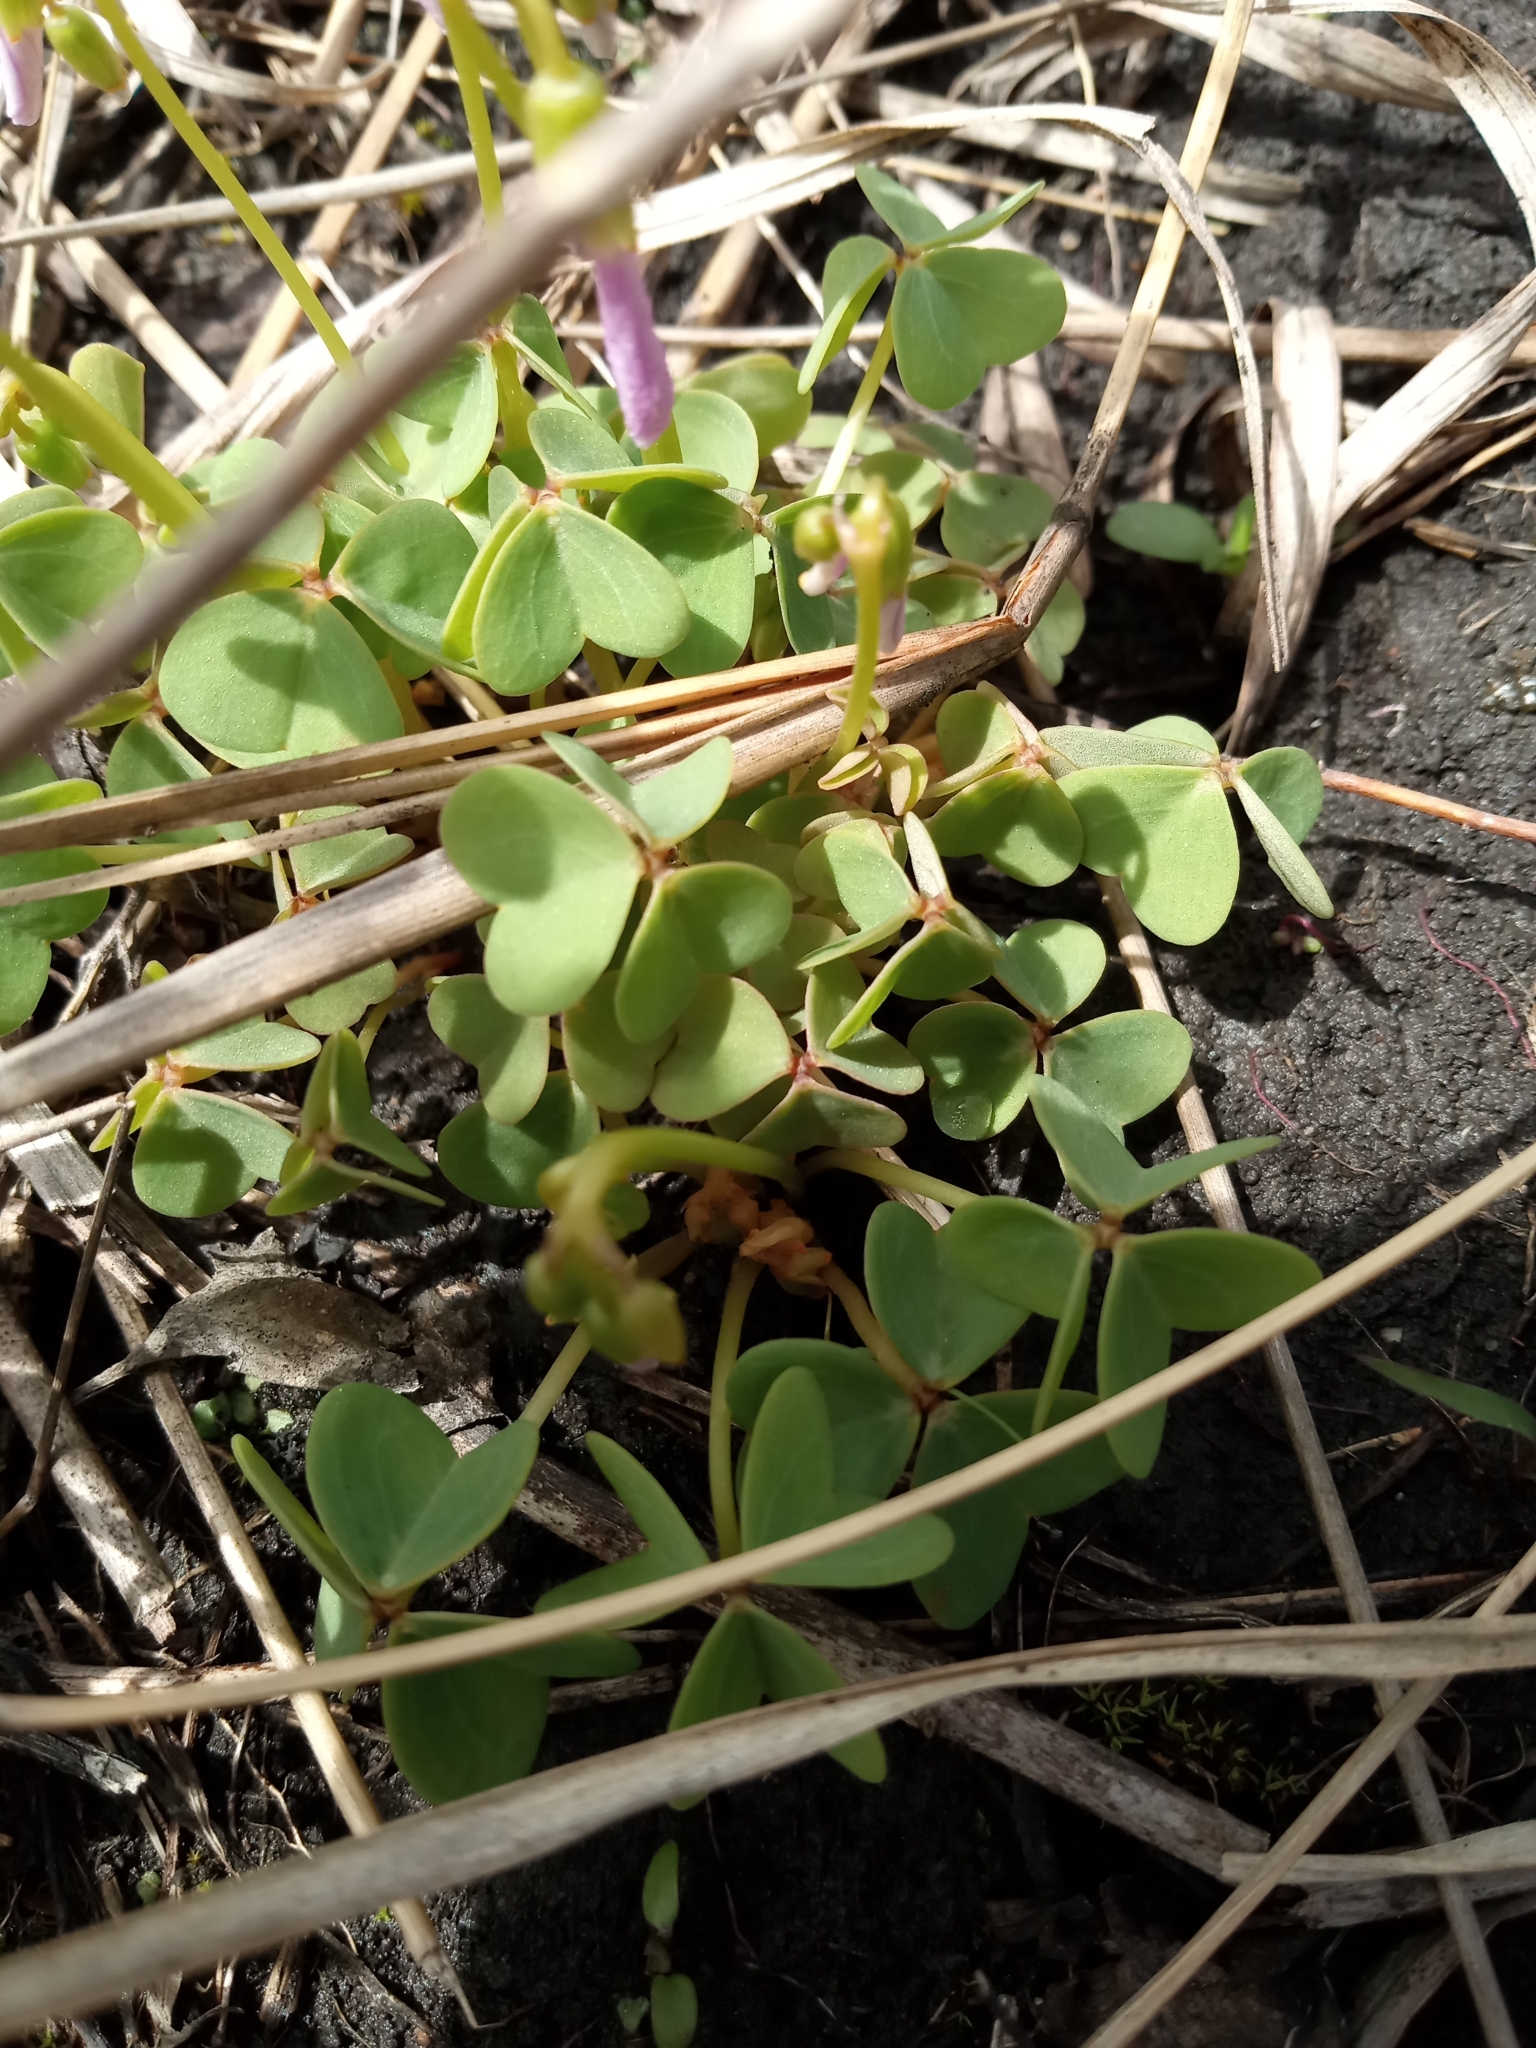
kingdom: Plantae
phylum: Tracheophyta
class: Magnoliopsida
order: Oxalidales
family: Oxalidaceae
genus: Oxalis
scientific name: Oxalis violacea
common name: Violet wood-sorrel
